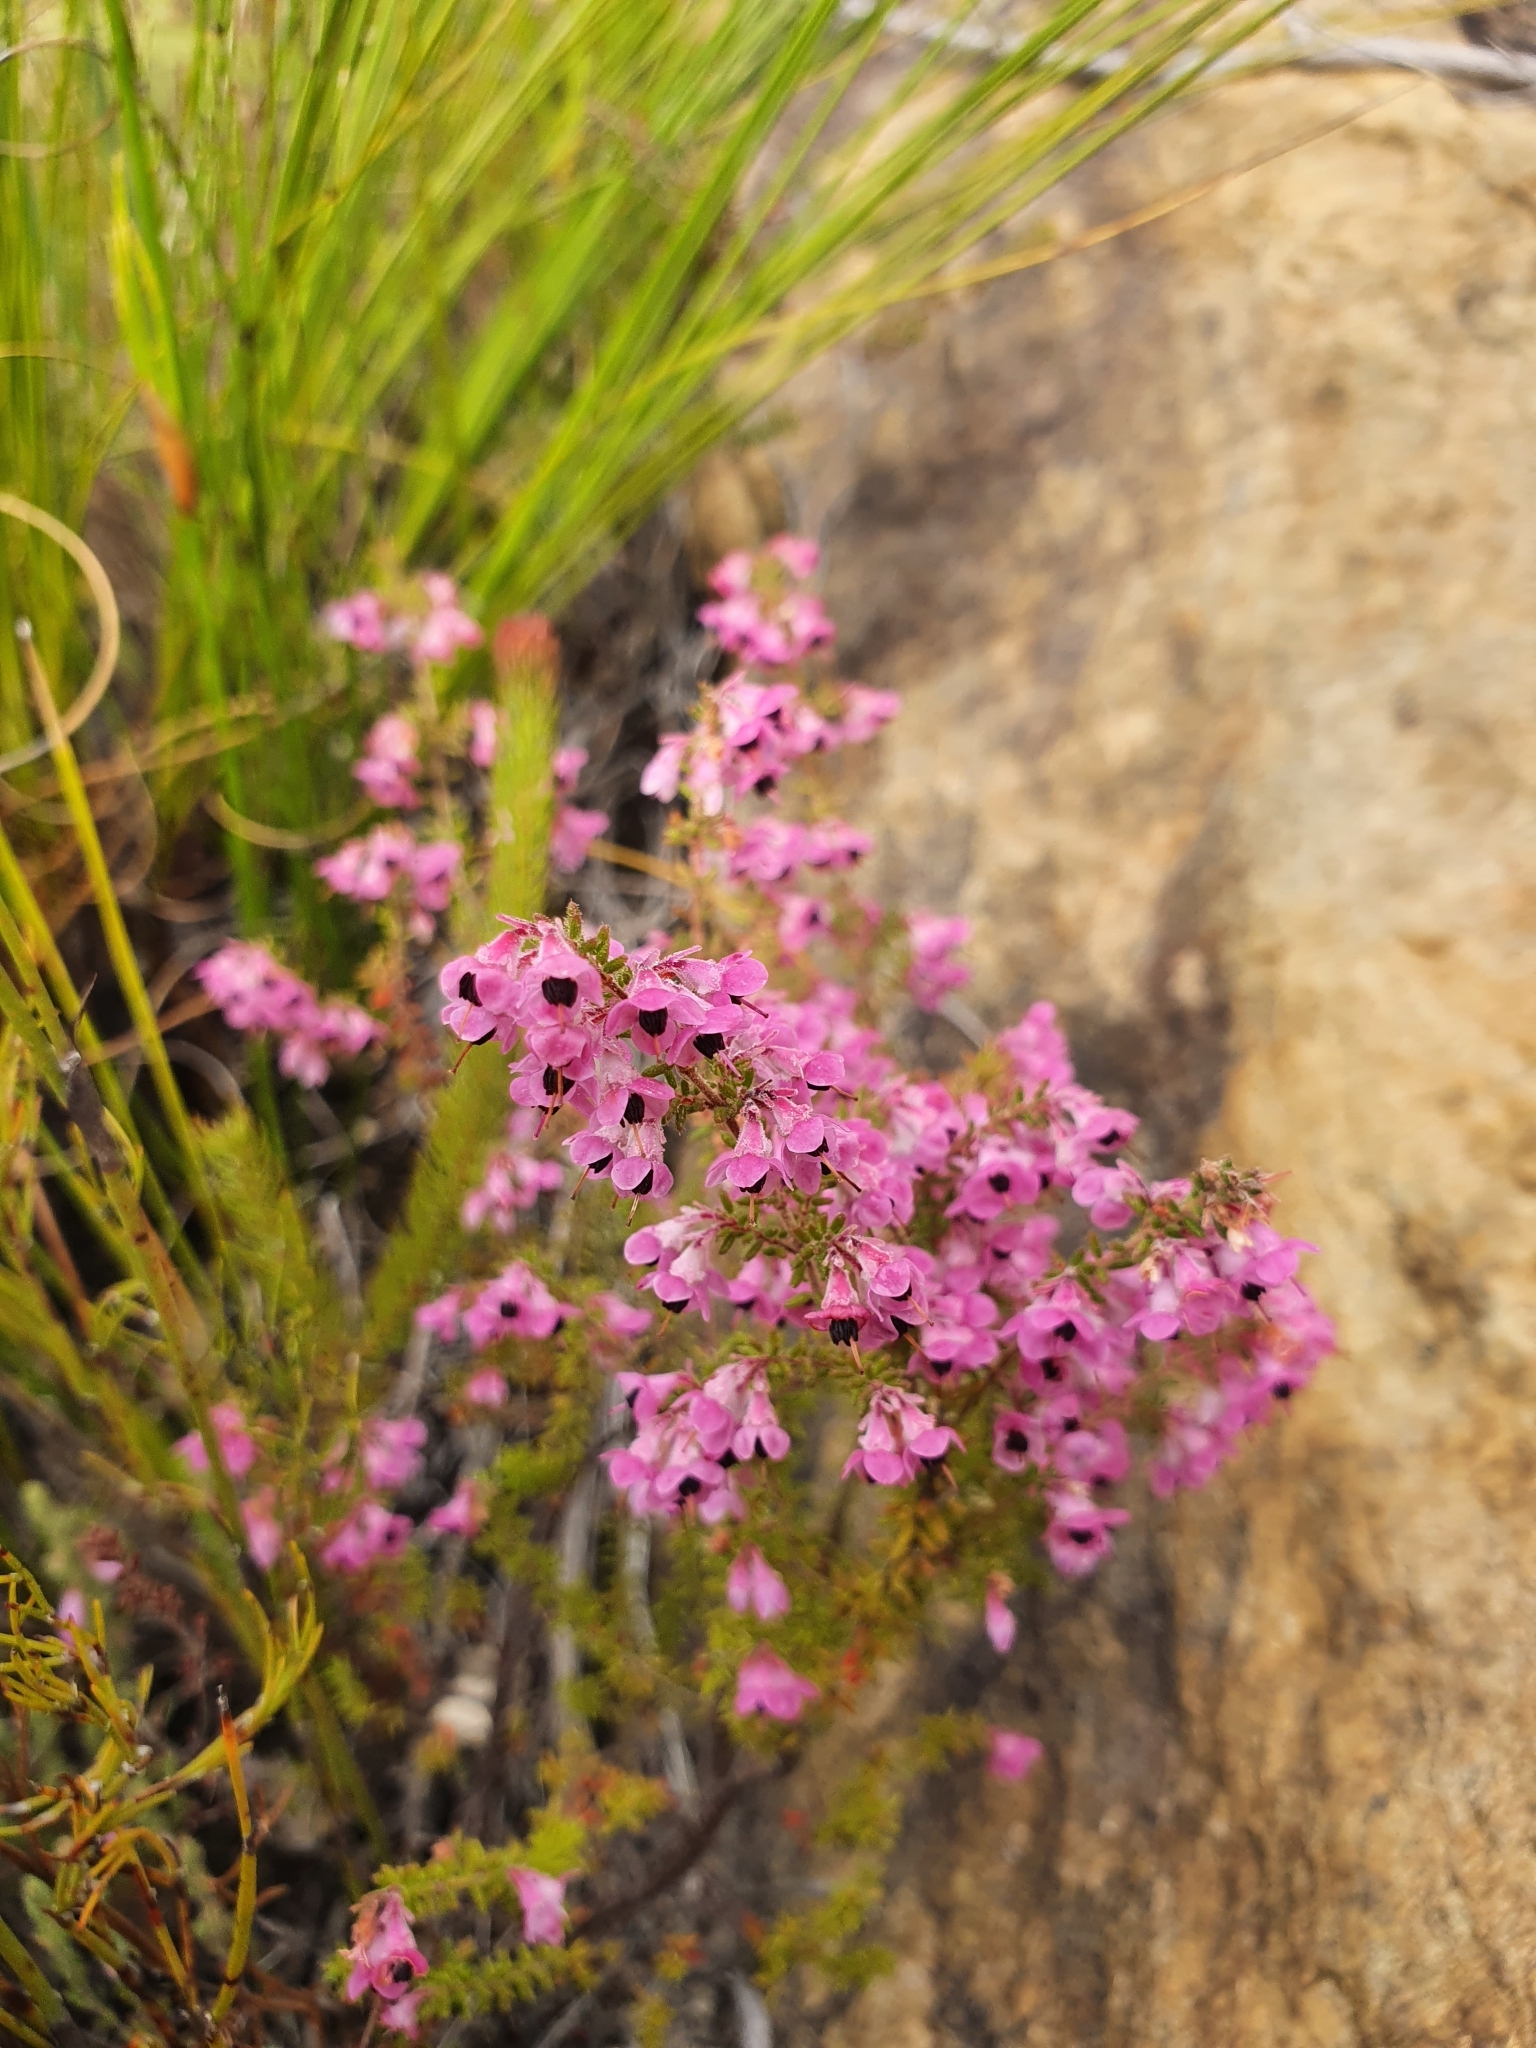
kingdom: Plantae
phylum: Tracheophyta
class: Magnoliopsida
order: Ericales
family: Ericaceae
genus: Erica
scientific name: Erica melanthera
